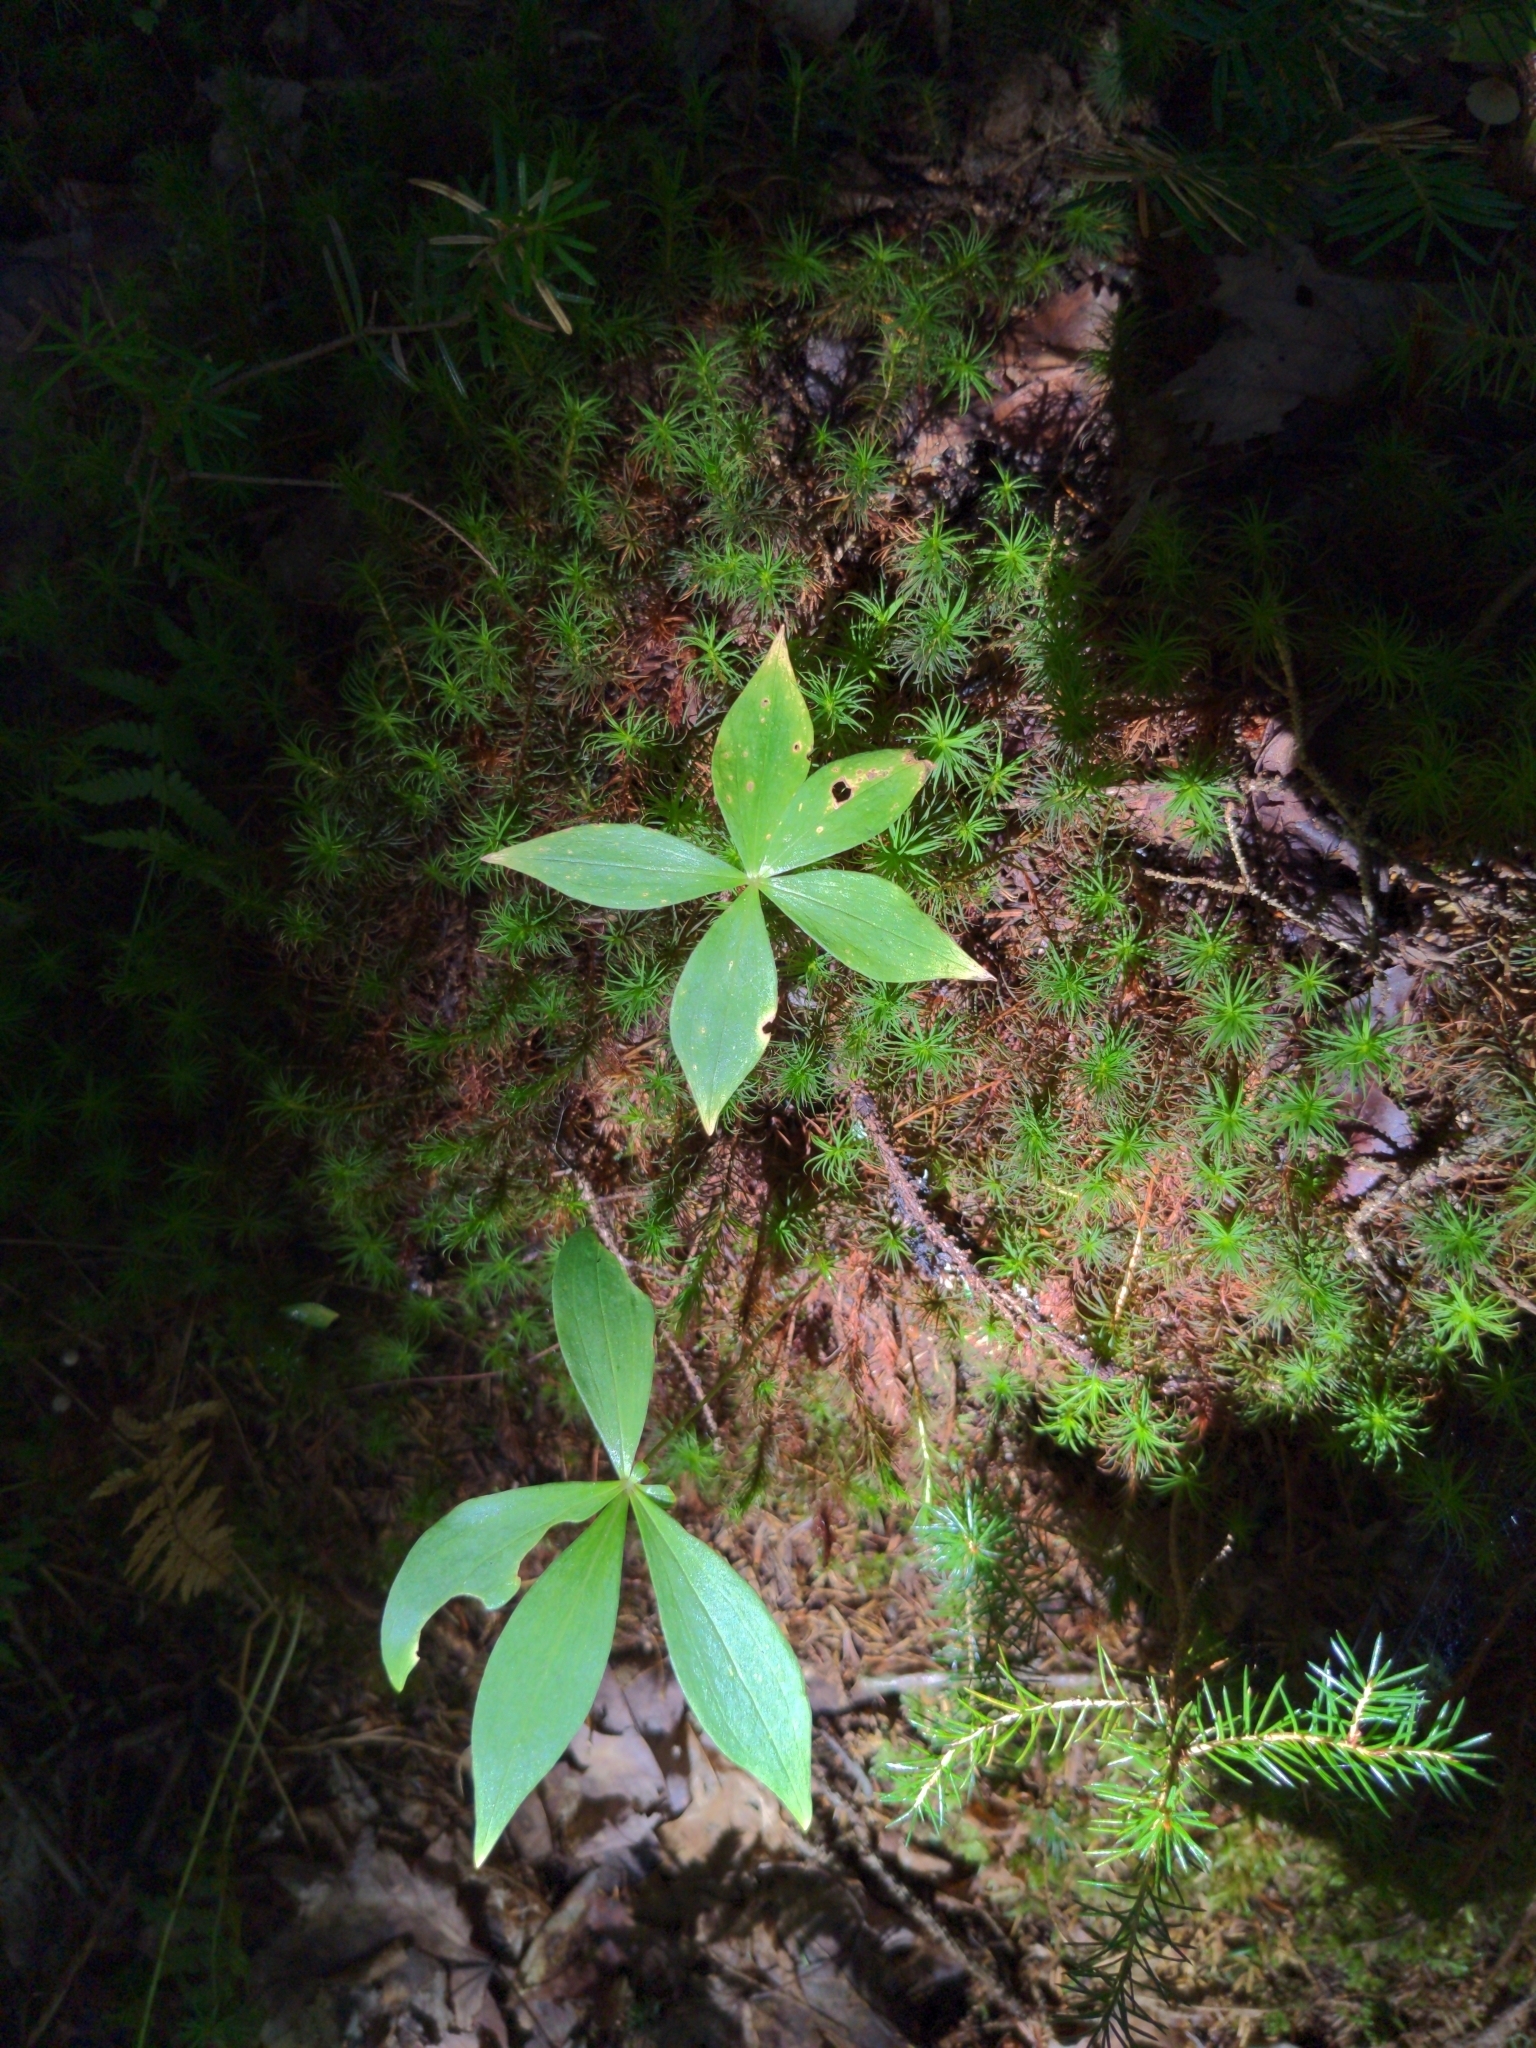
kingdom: Plantae
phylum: Tracheophyta
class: Magnoliopsida
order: Ericales
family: Primulaceae
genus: Lysimachia
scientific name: Lysimachia borealis
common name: American starflower
